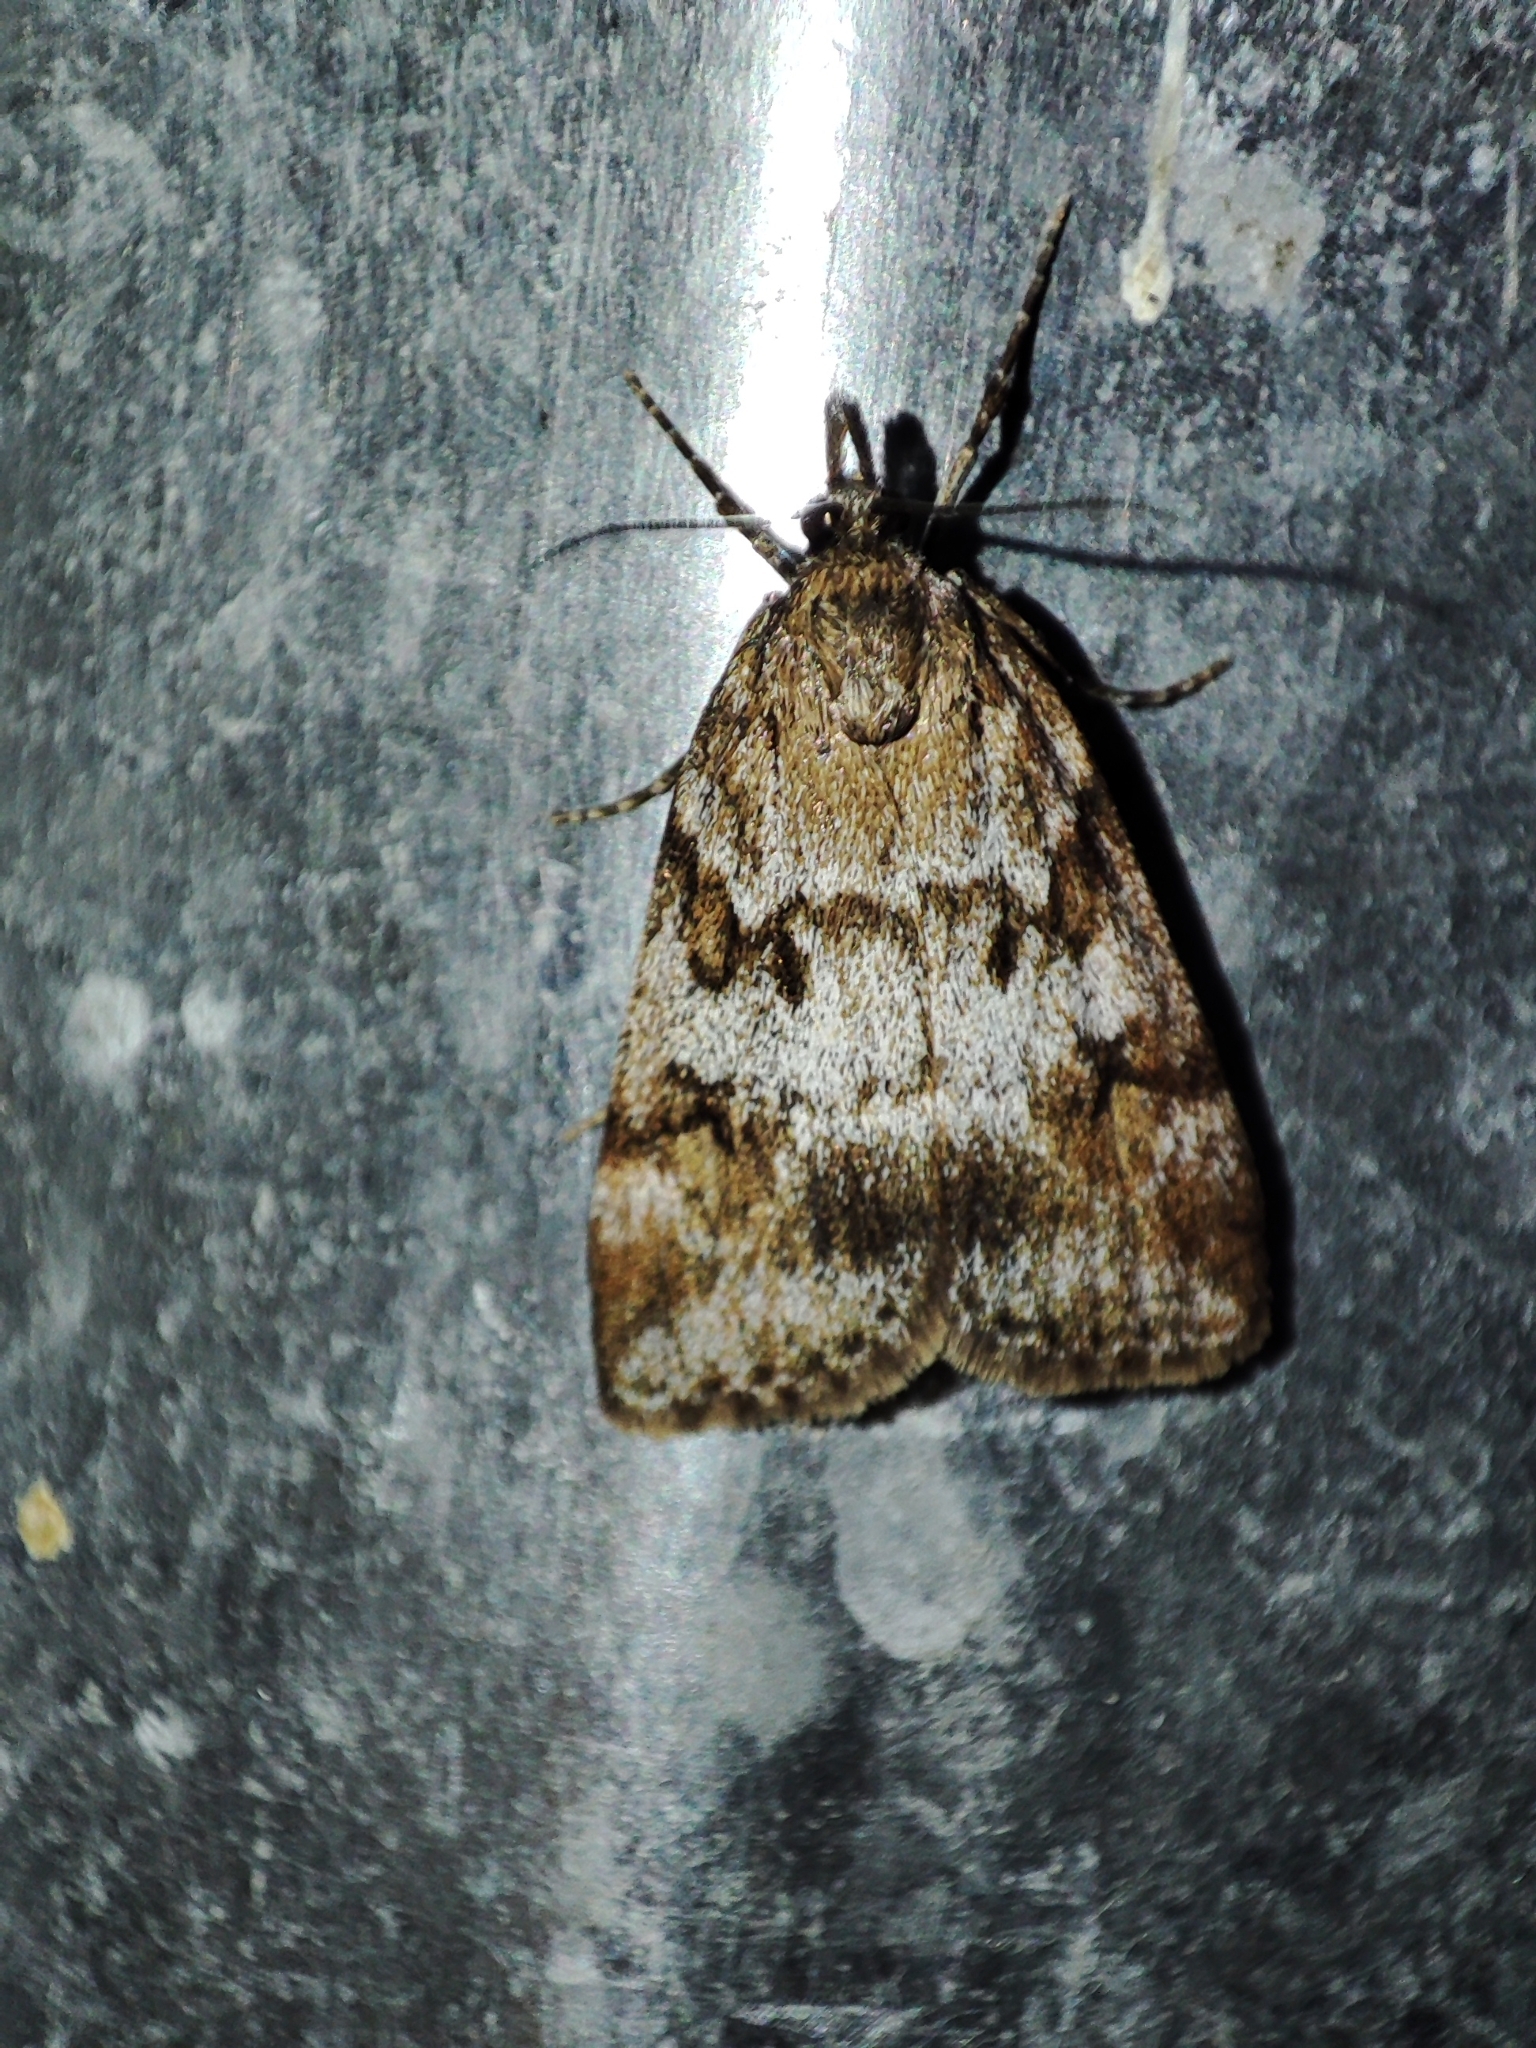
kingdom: Animalia
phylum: Arthropoda
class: Insecta
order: Lepidoptera
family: Crambidae
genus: Gesneria
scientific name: Gesneria centuriella
